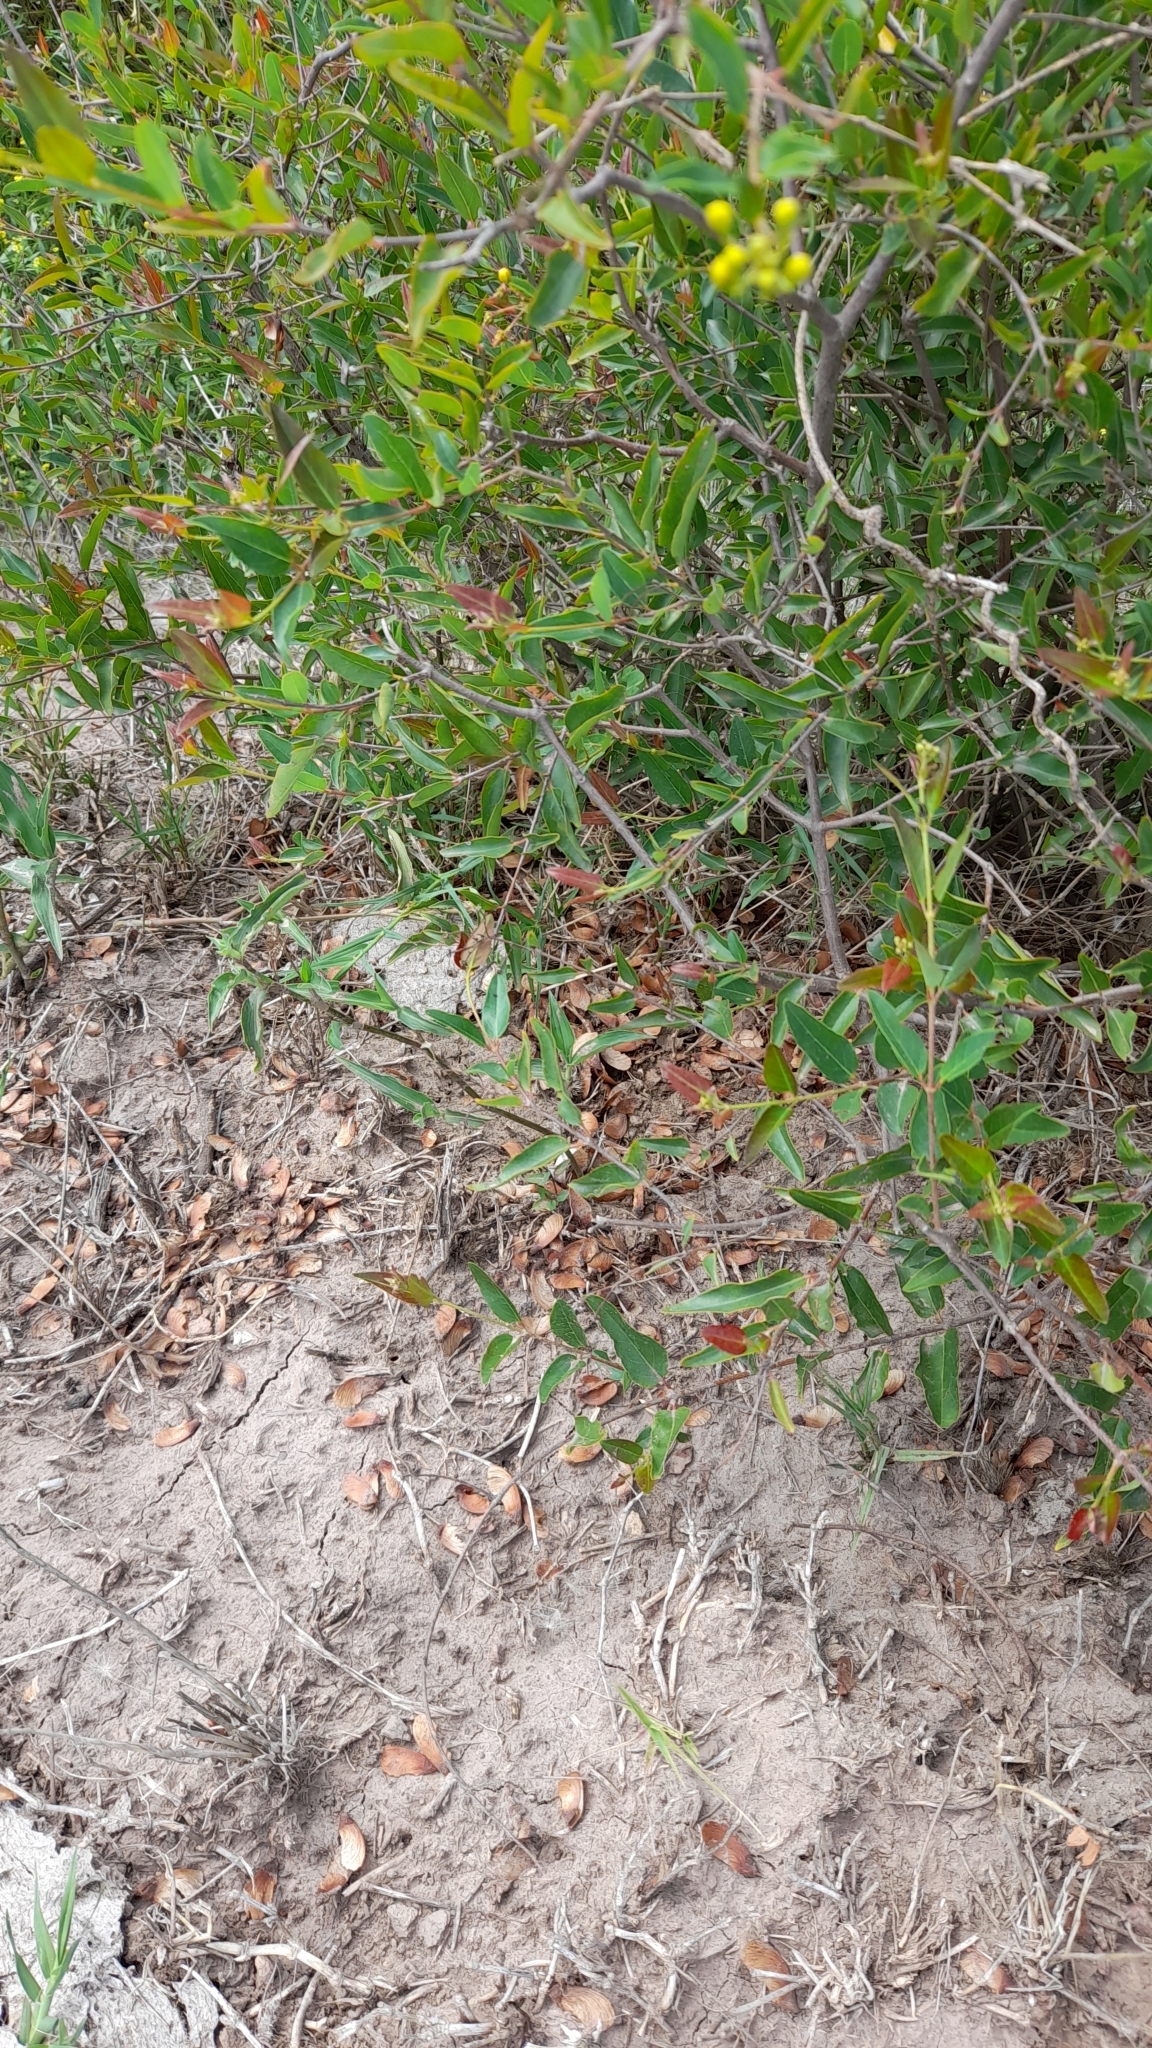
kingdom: Plantae
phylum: Tracheophyta
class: Magnoliopsida
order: Malpighiales
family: Malpighiaceae
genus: Heteropterys
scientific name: Heteropterys glabra
